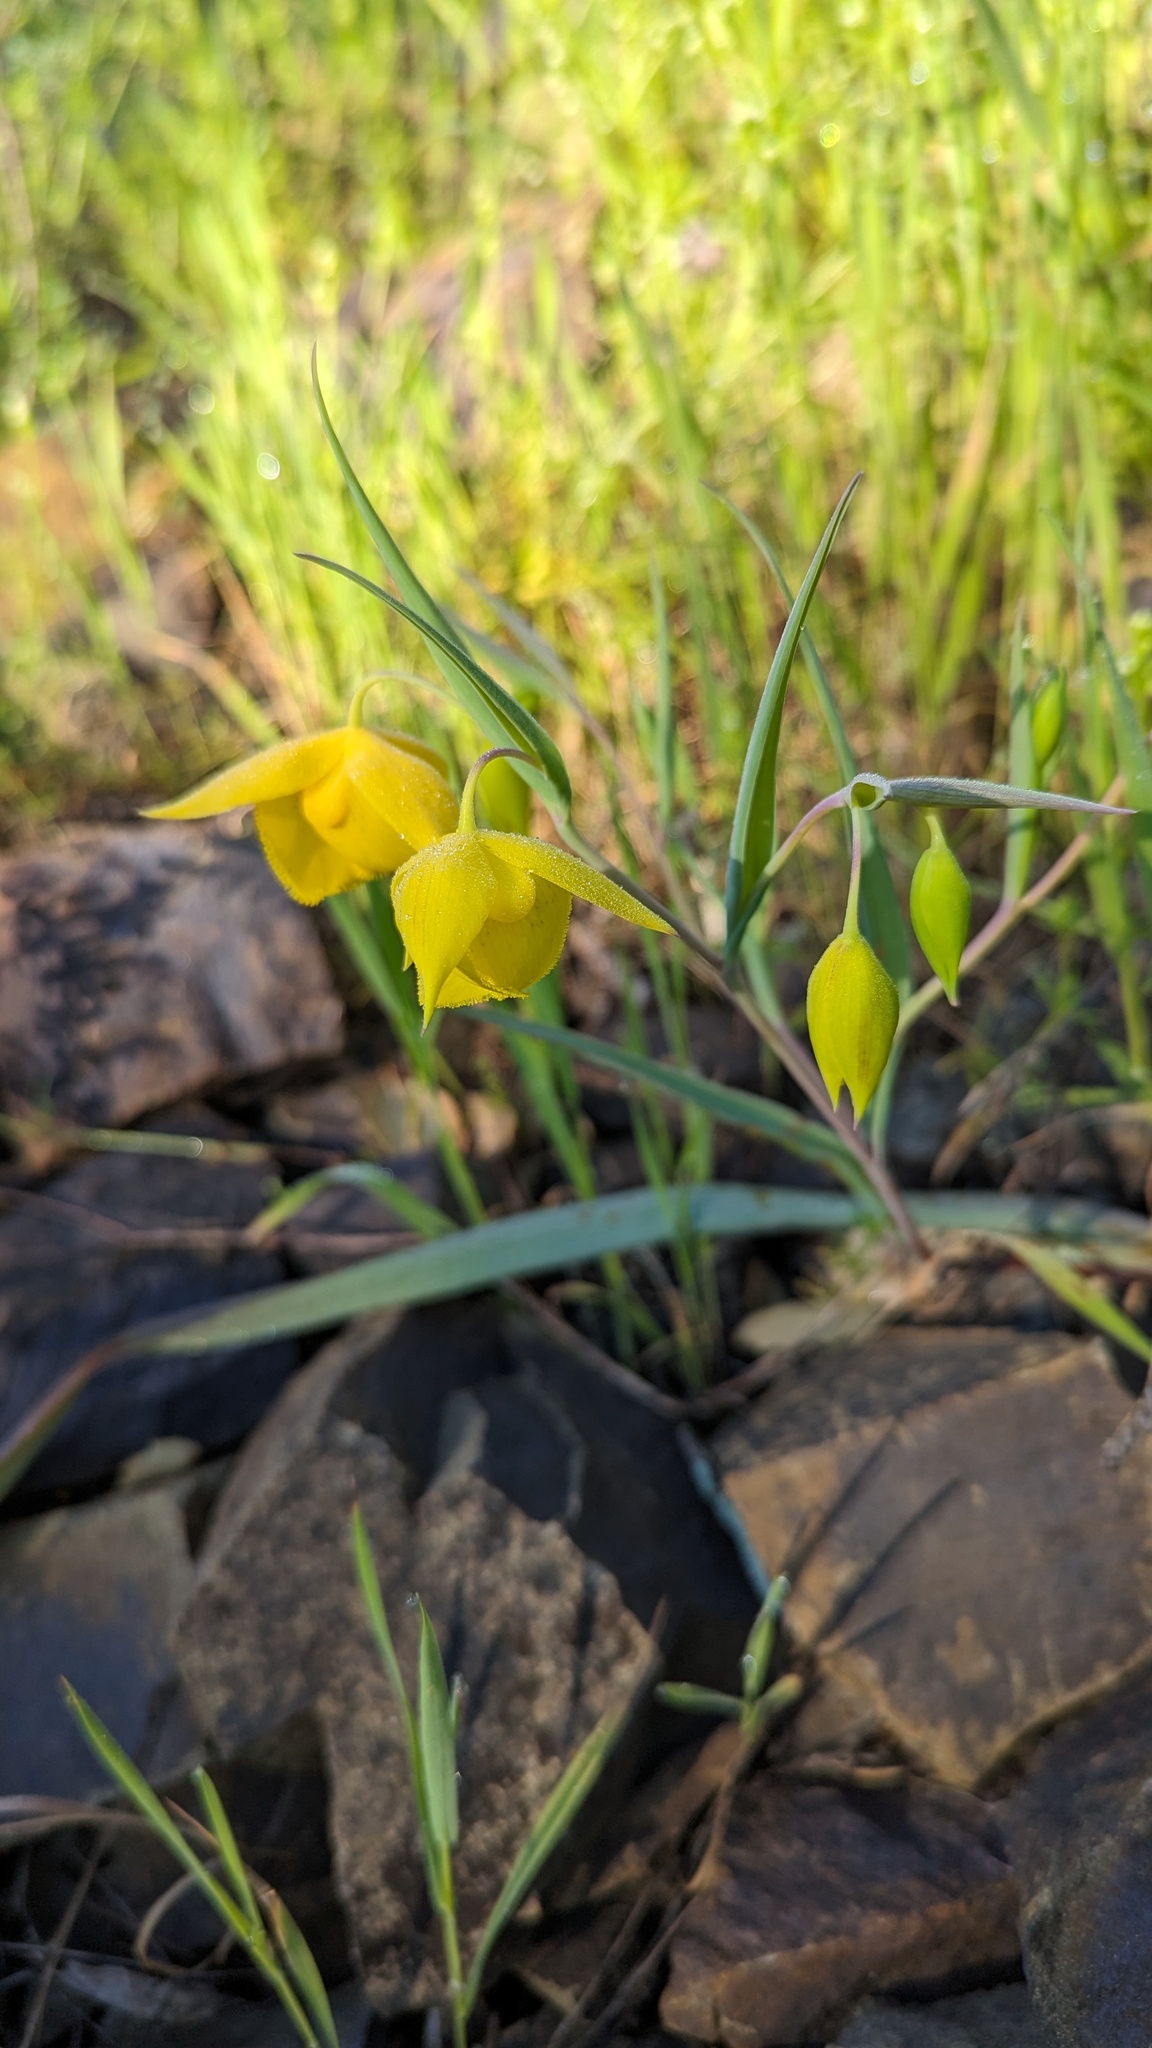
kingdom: Plantae
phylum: Tracheophyta
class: Liliopsida
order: Liliales
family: Liliaceae
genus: Calochortus
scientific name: Calochortus amabilis
